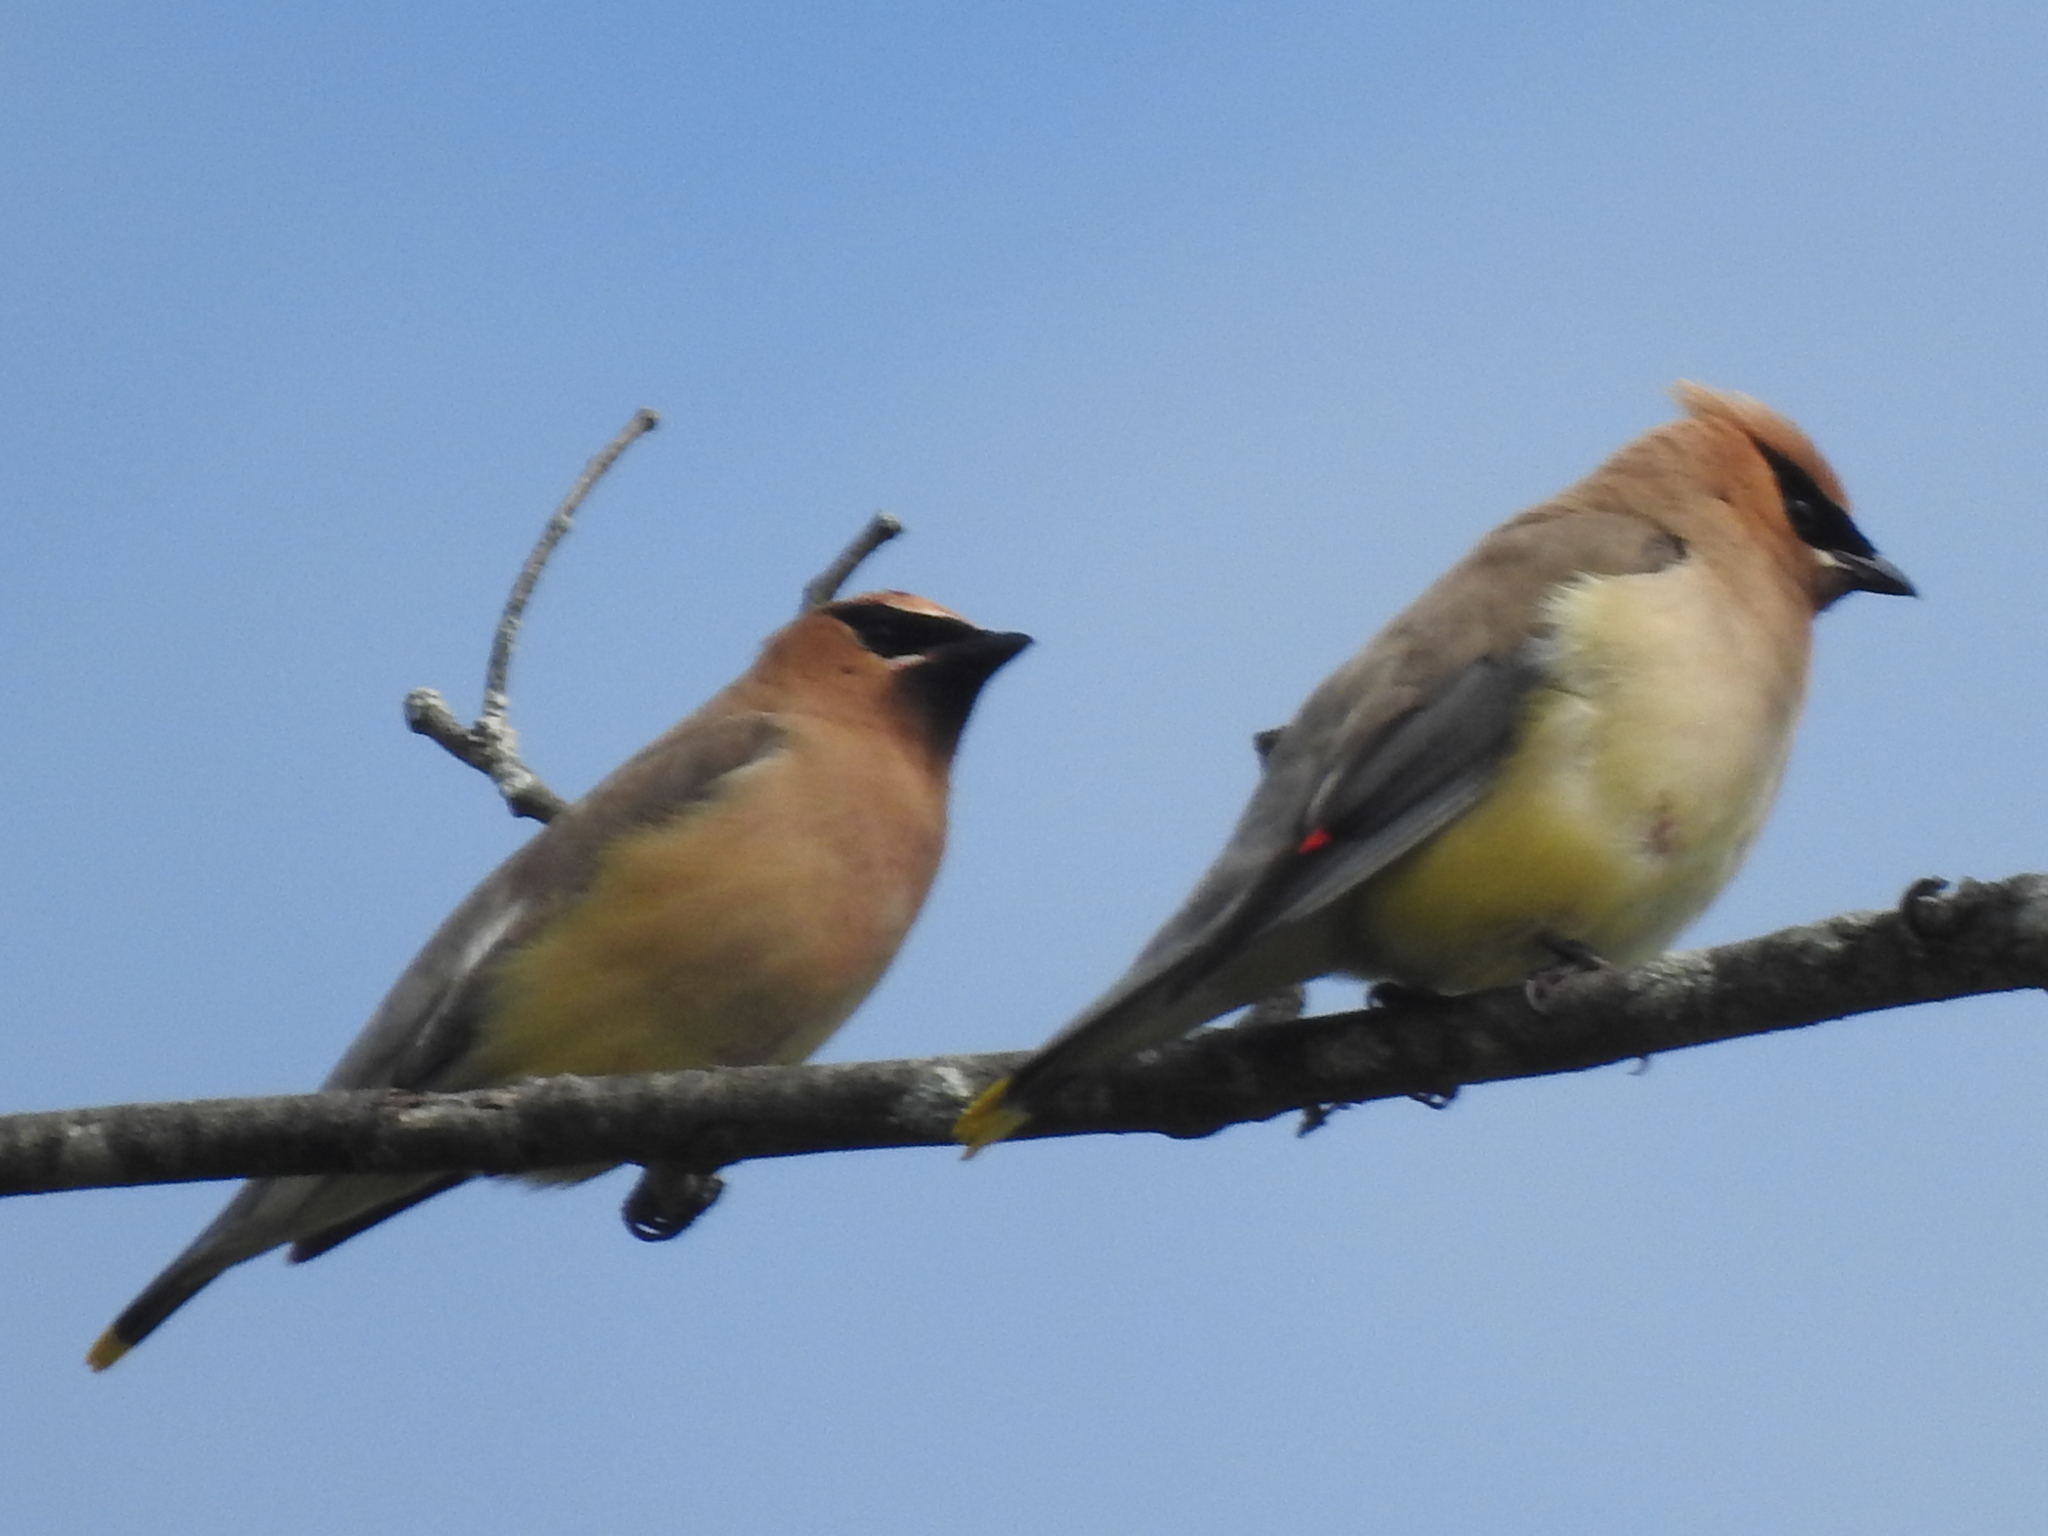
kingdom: Animalia
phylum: Chordata
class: Aves
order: Passeriformes
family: Bombycillidae
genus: Bombycilla
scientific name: Bombycilla cedrorum
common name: Cedar waxwing
